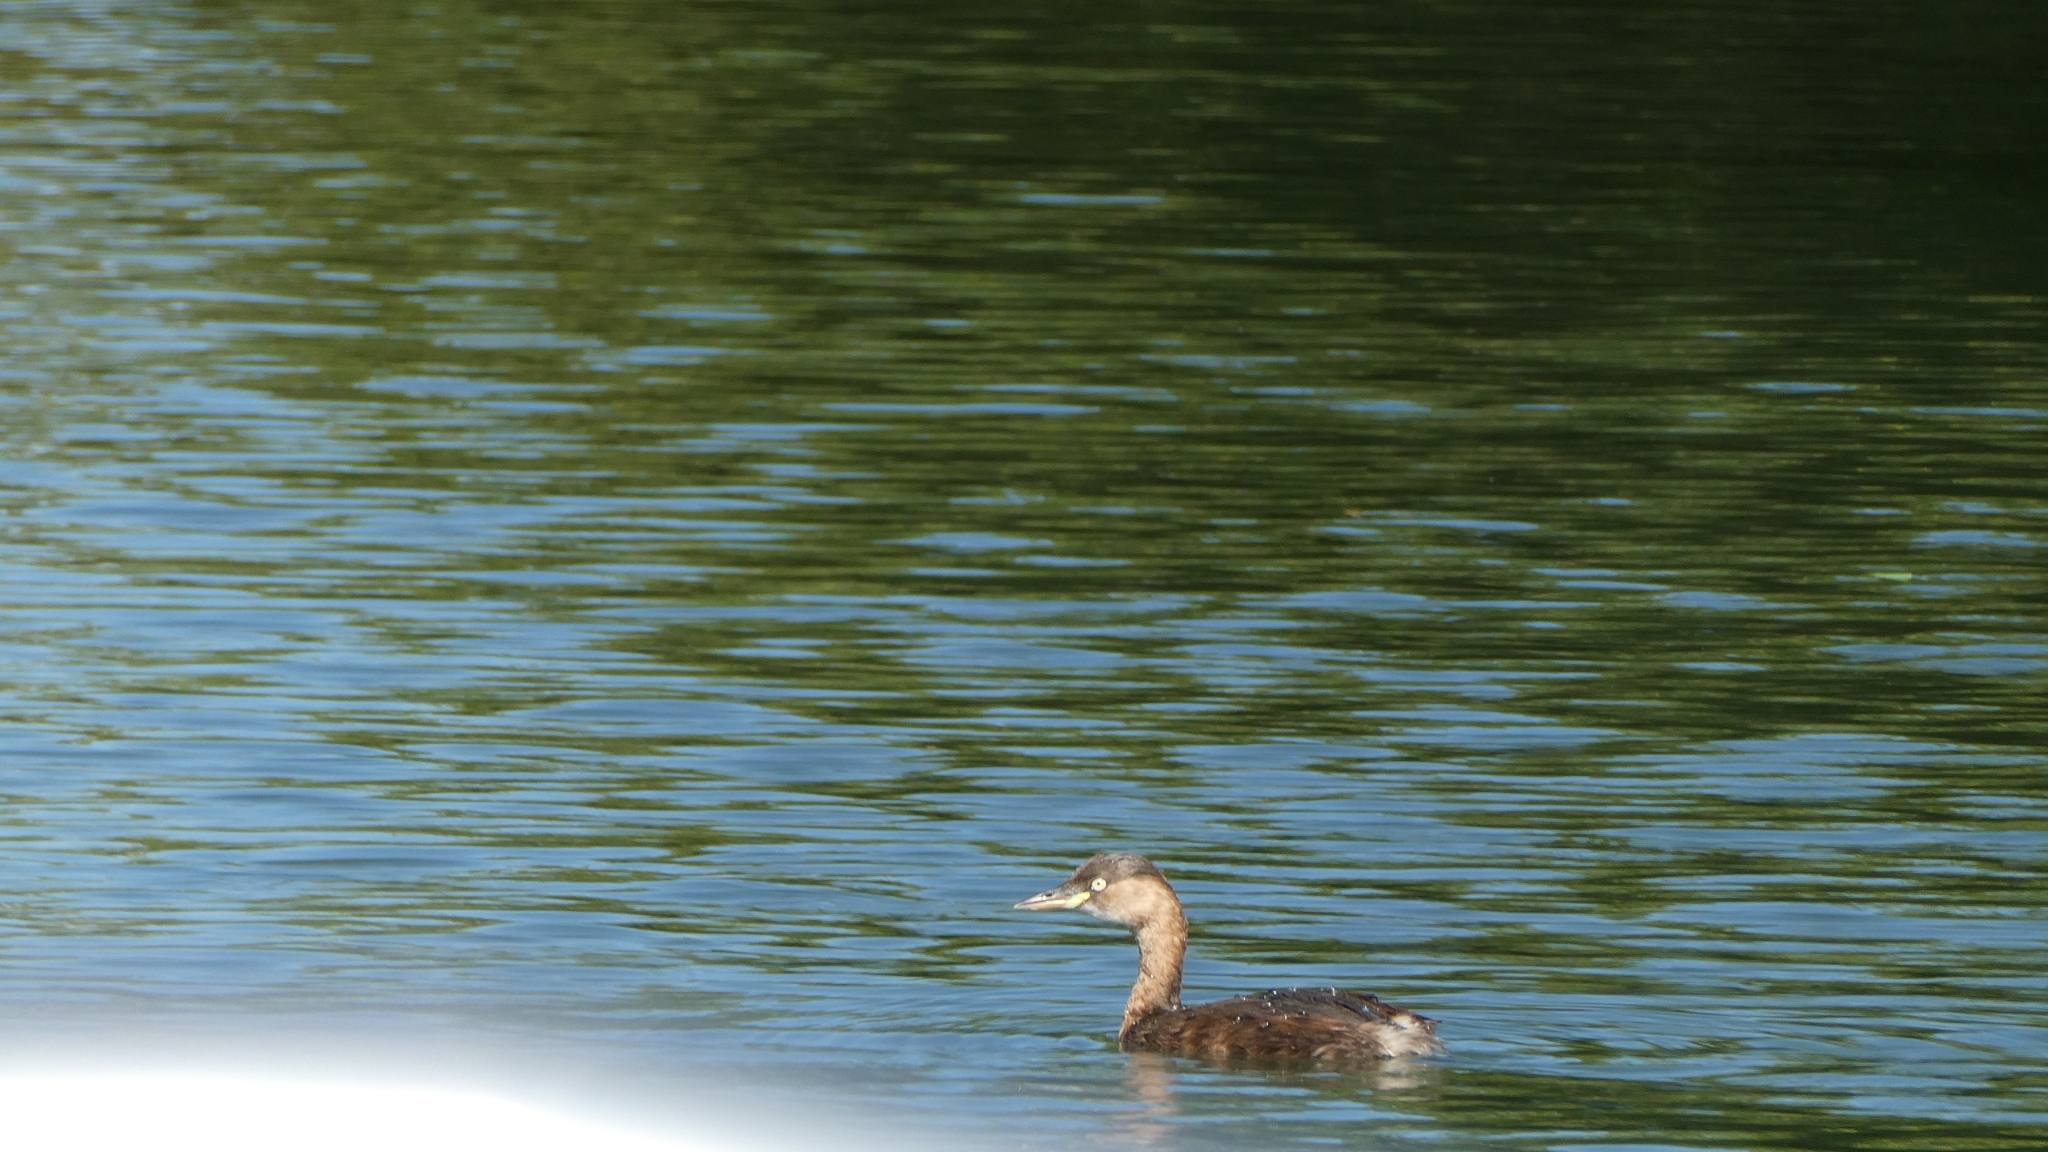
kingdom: Animalia
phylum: Chordata
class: Aves
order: Podicipediformes
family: Podicipedidae
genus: Tachybaptus
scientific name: Tachybaptus ruficollis
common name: Little grebe
